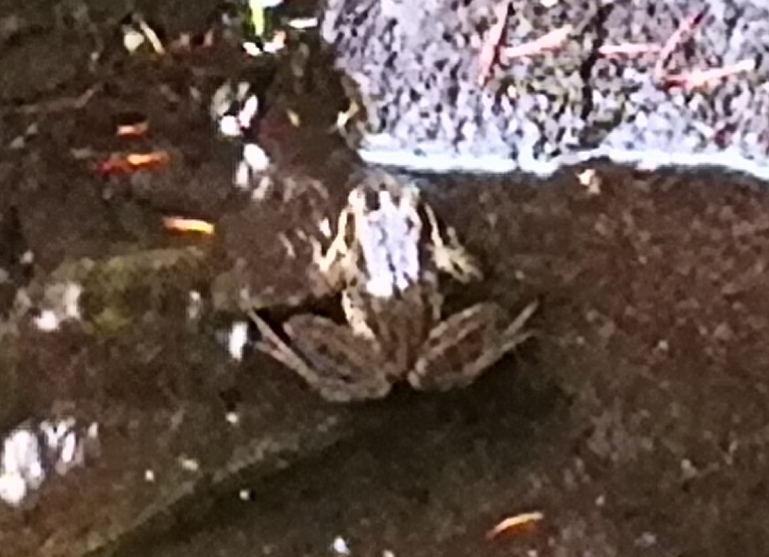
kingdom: Animalia
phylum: Chordata
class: Amphibia
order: Anura
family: Ranidae
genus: Rana
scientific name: Rana cascadae
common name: Cascades frog
